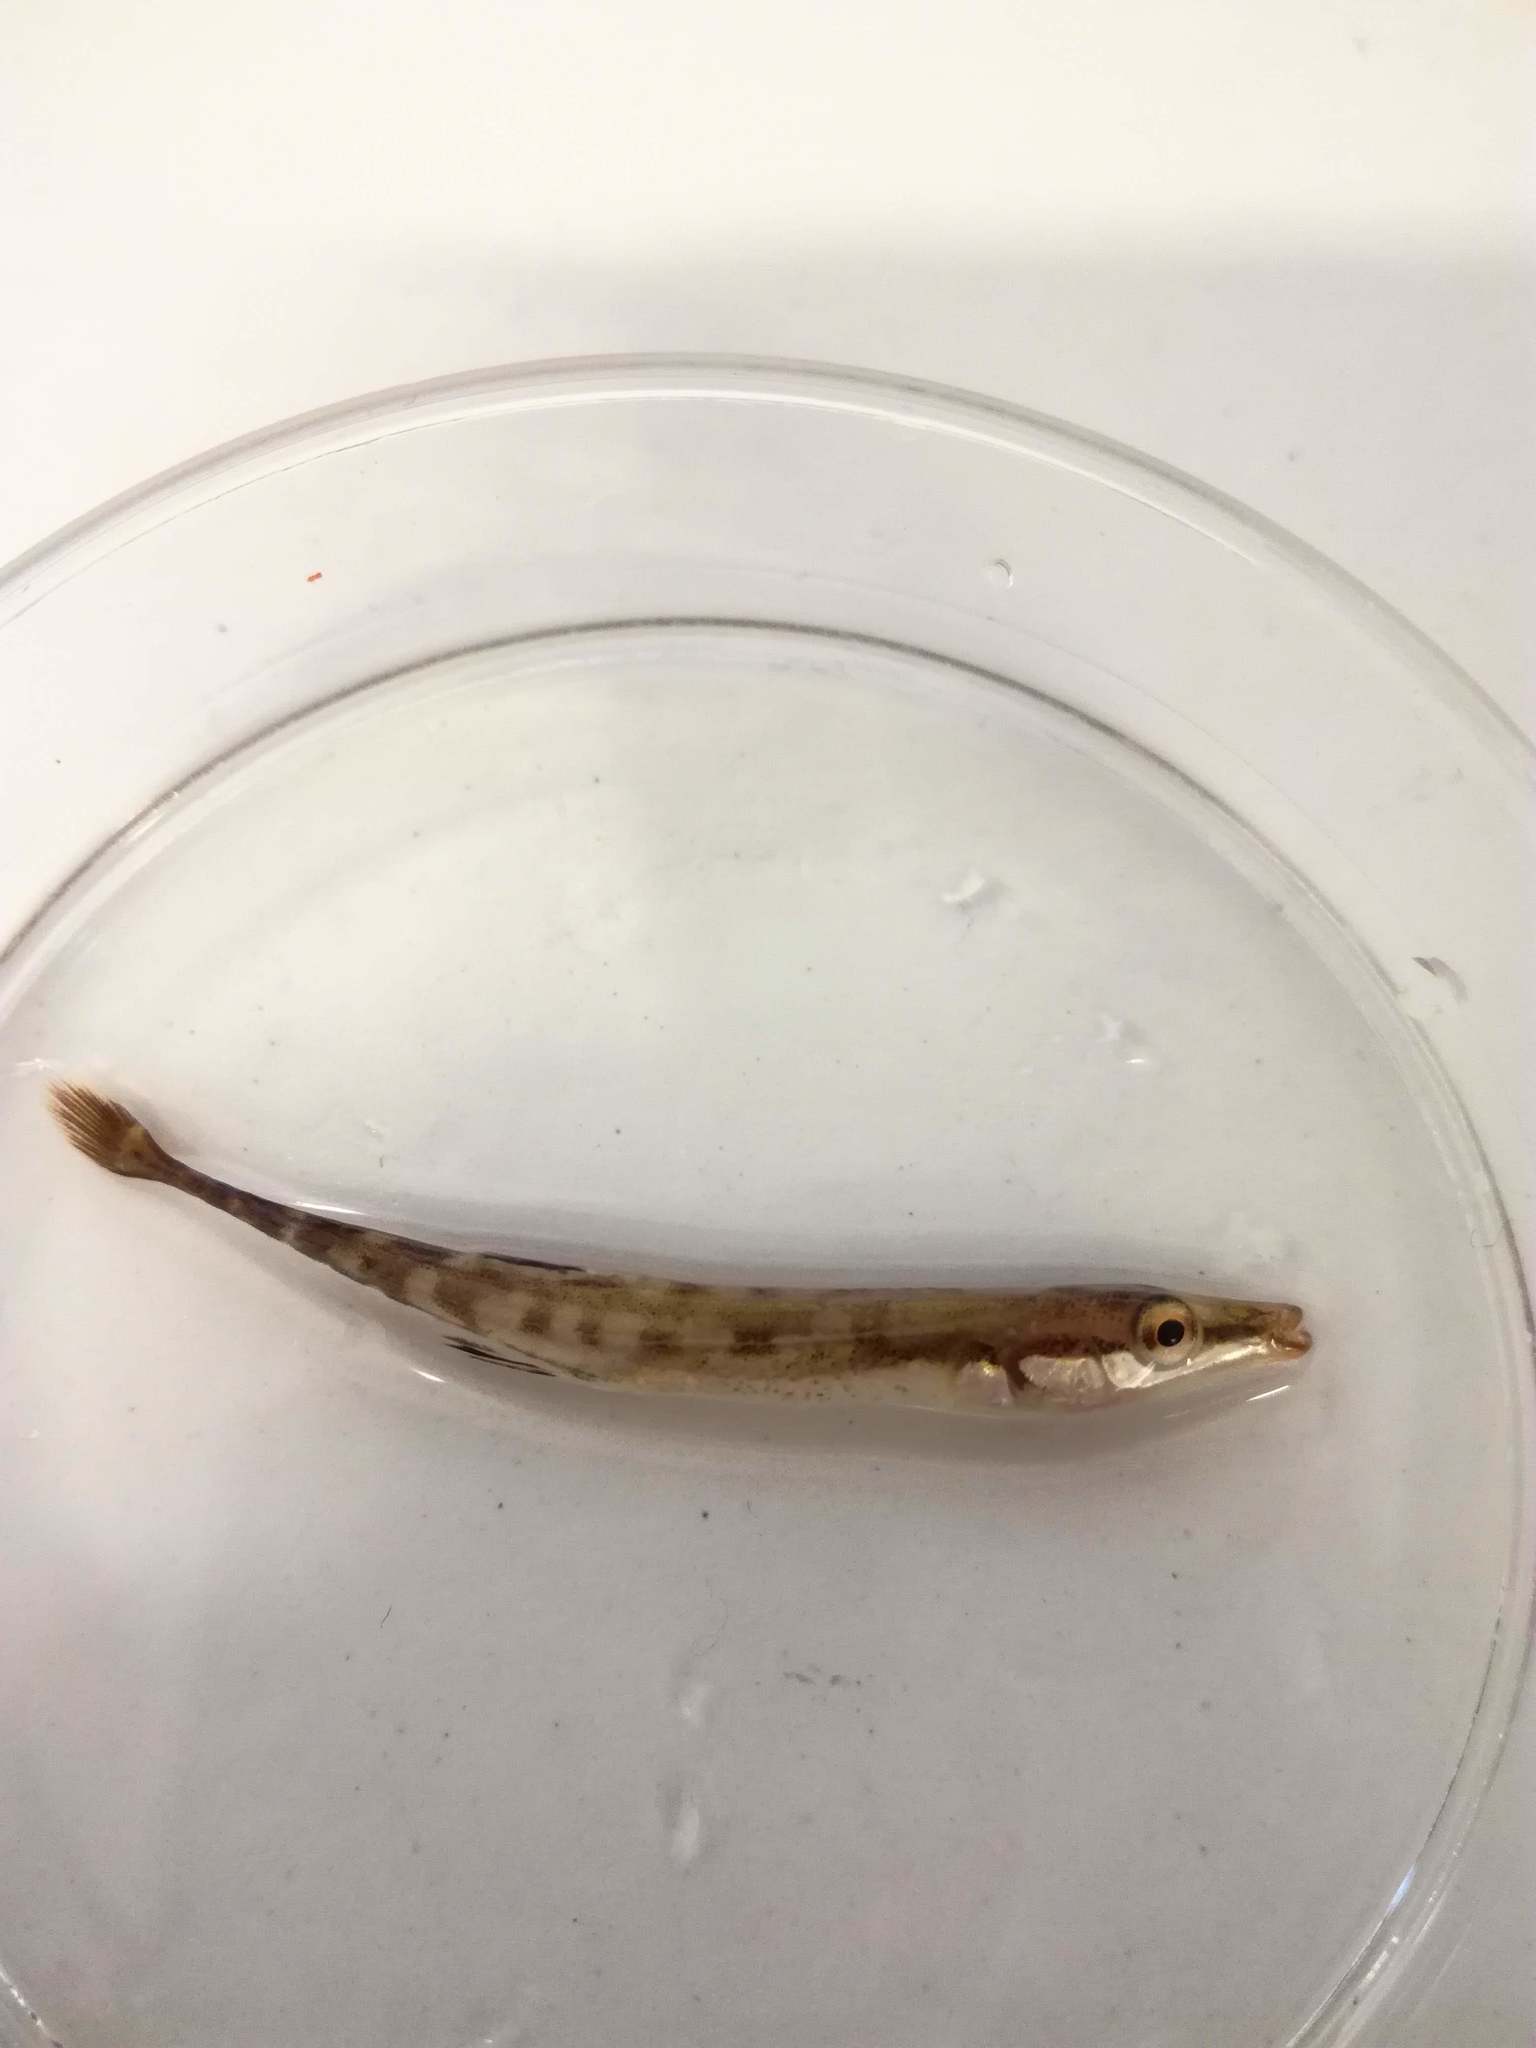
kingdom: Animalia
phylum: Chordata
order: Gasterosteiformes
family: Gasterosteidae
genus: Spinachia
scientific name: Spinachia spinachia
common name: Fifteen-spined stickleback
